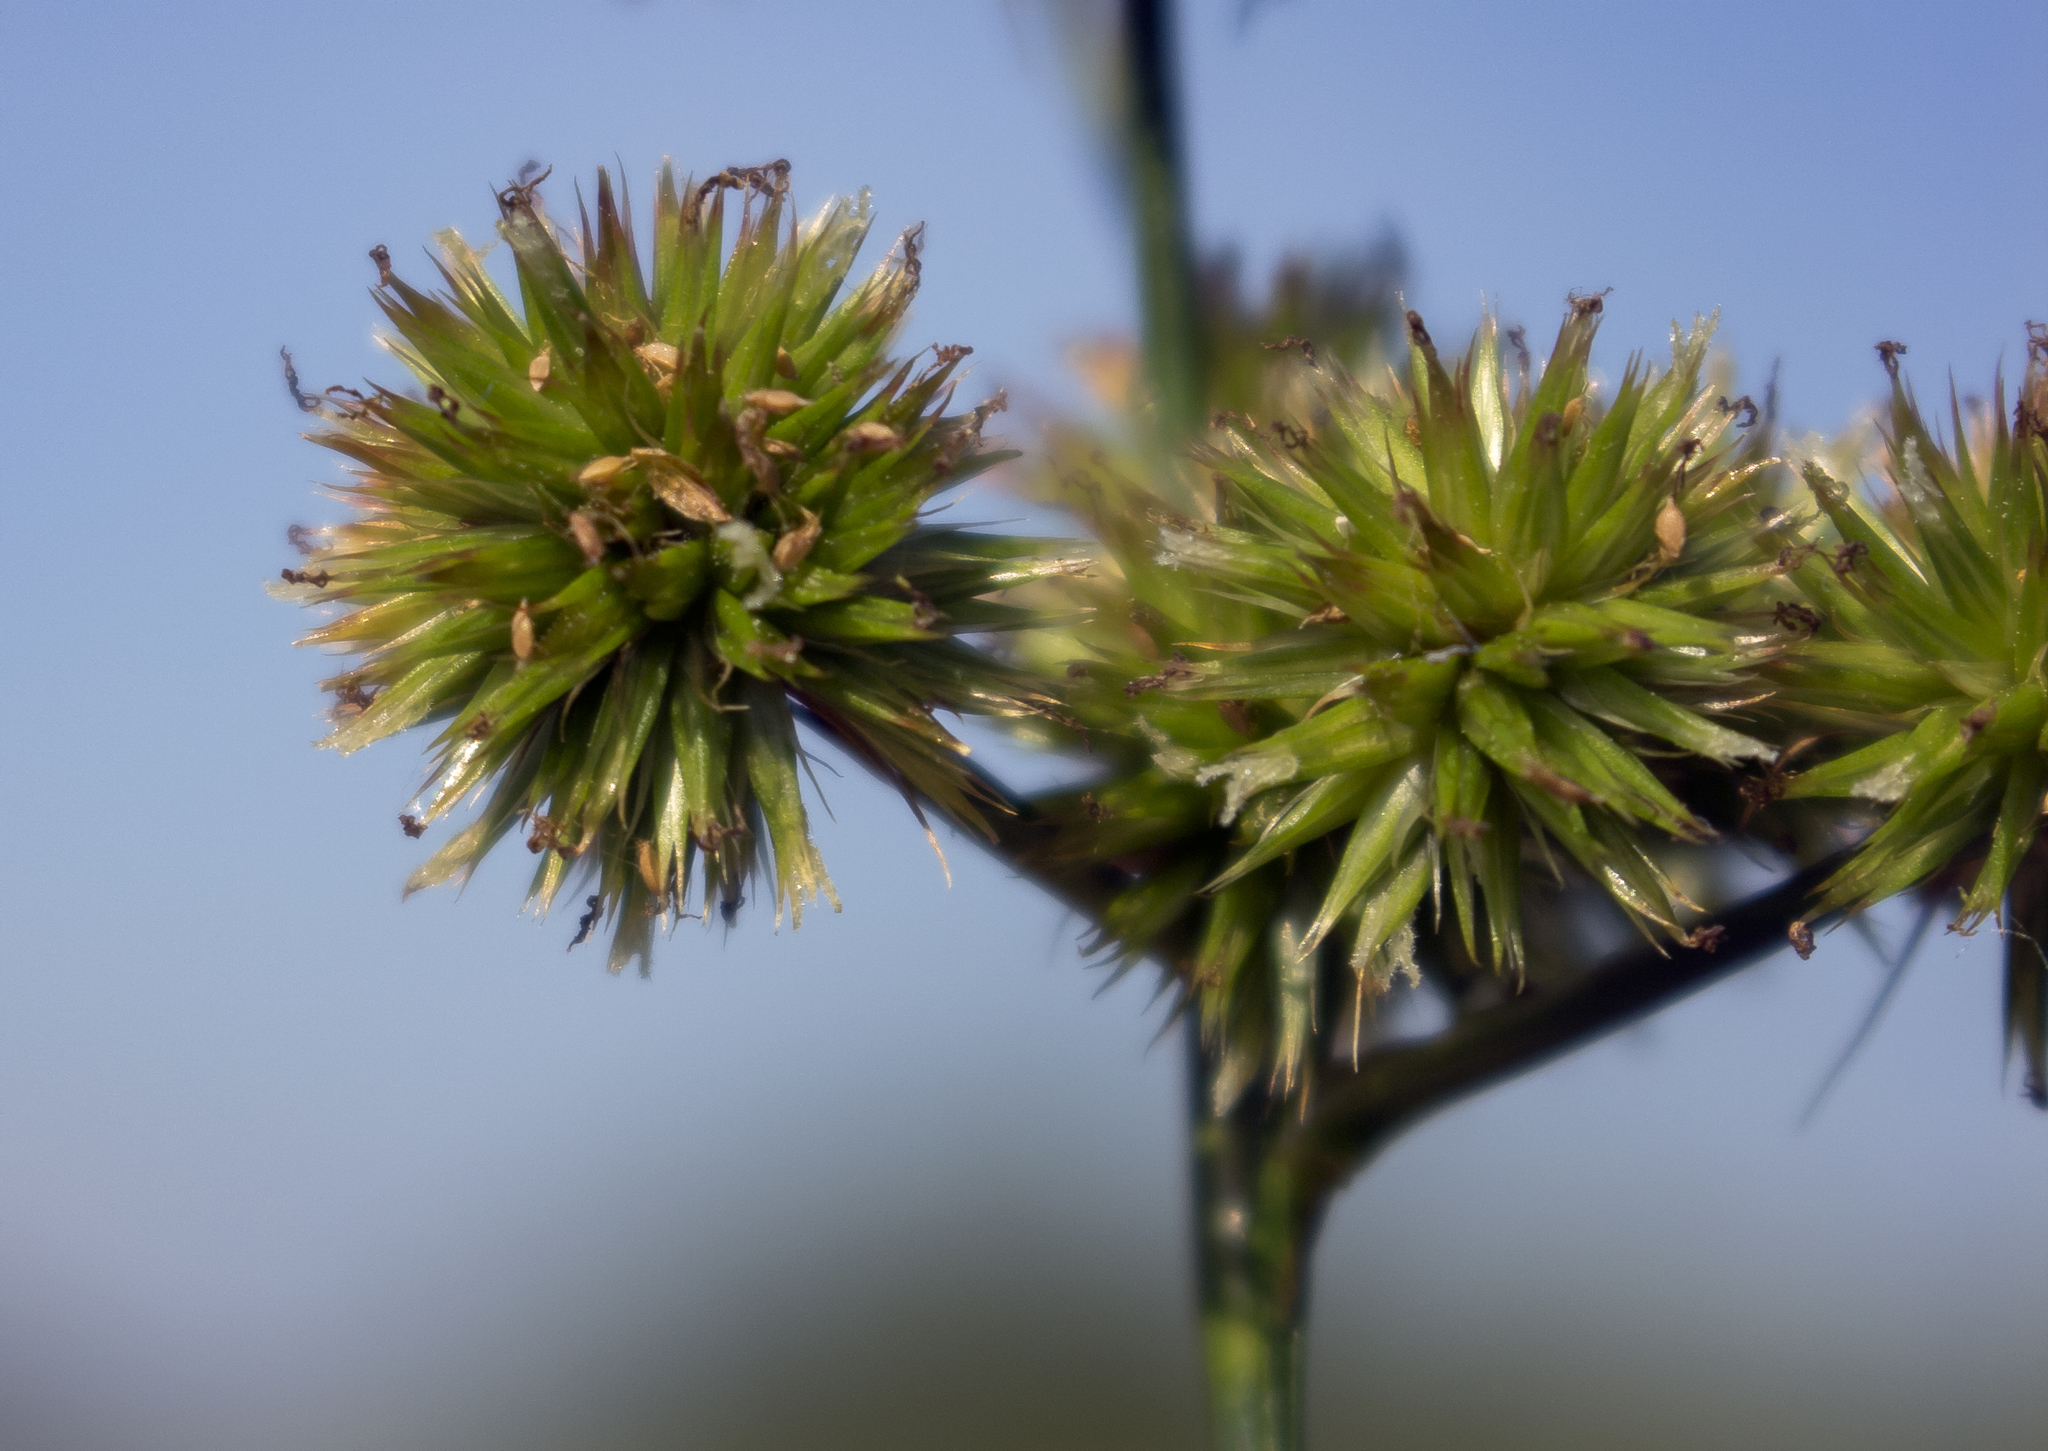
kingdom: Plantae
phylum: Tracheophyta
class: Liliopsida
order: Poales
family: Juncaceae
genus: Juncus
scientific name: Juncus torreyi
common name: Torrey's rush
